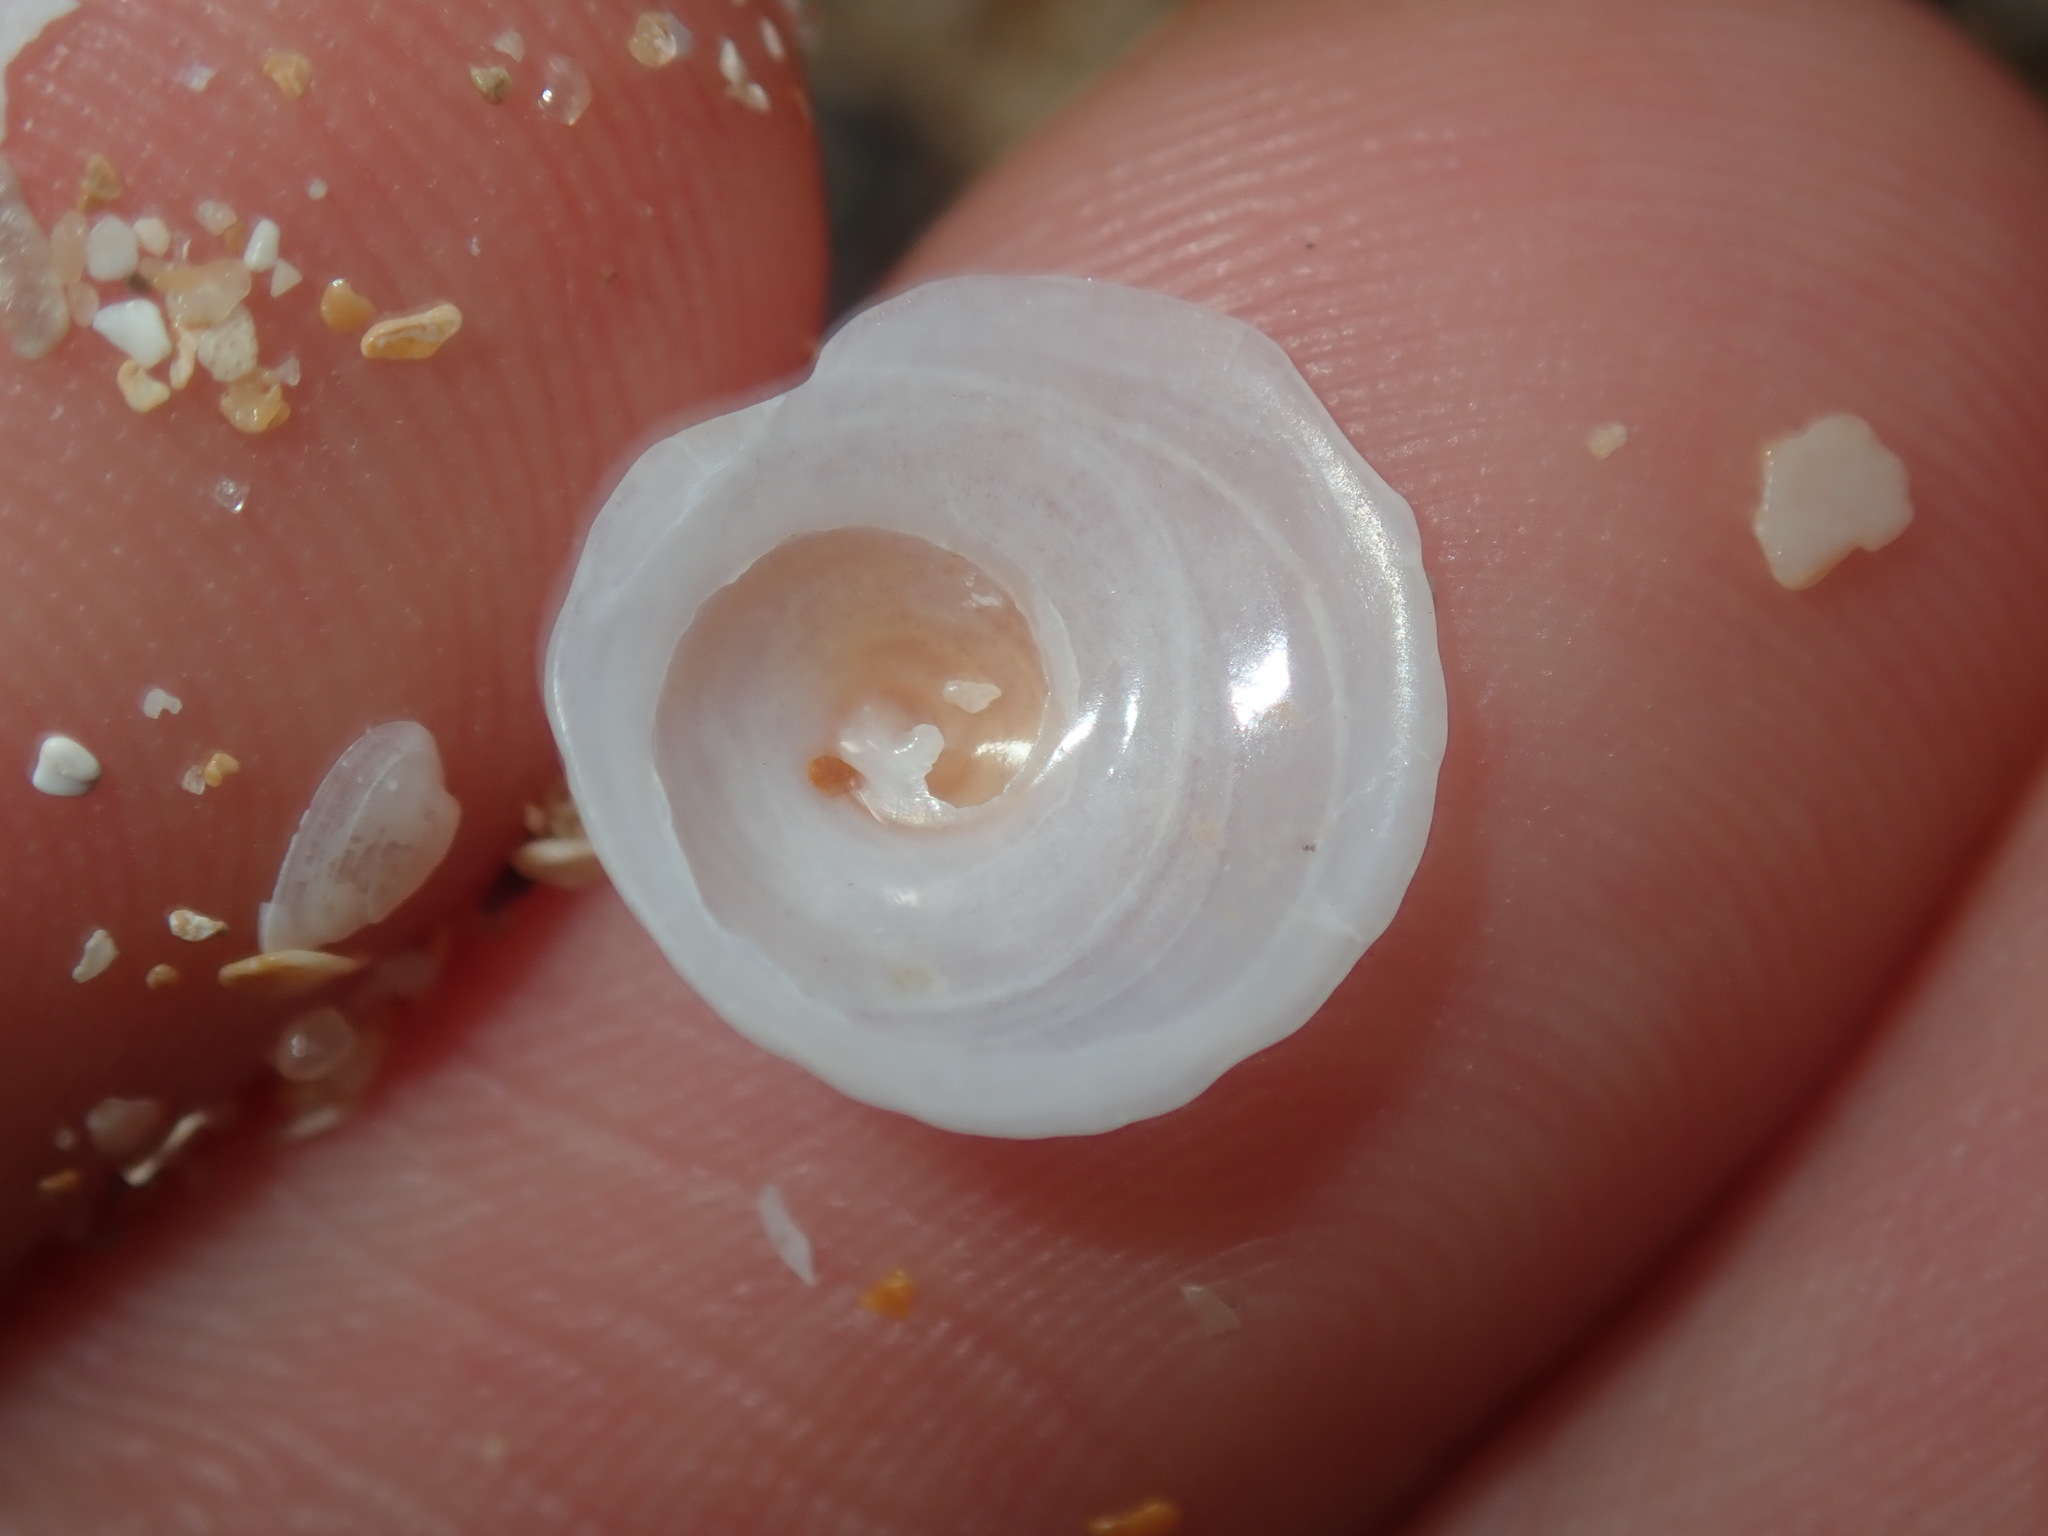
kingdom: Animalia
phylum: Mollusca
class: Gastropoda
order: Littorinimorpha
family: Calyptraeidae
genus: Sigapatella
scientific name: Sigapatella hedleyi
